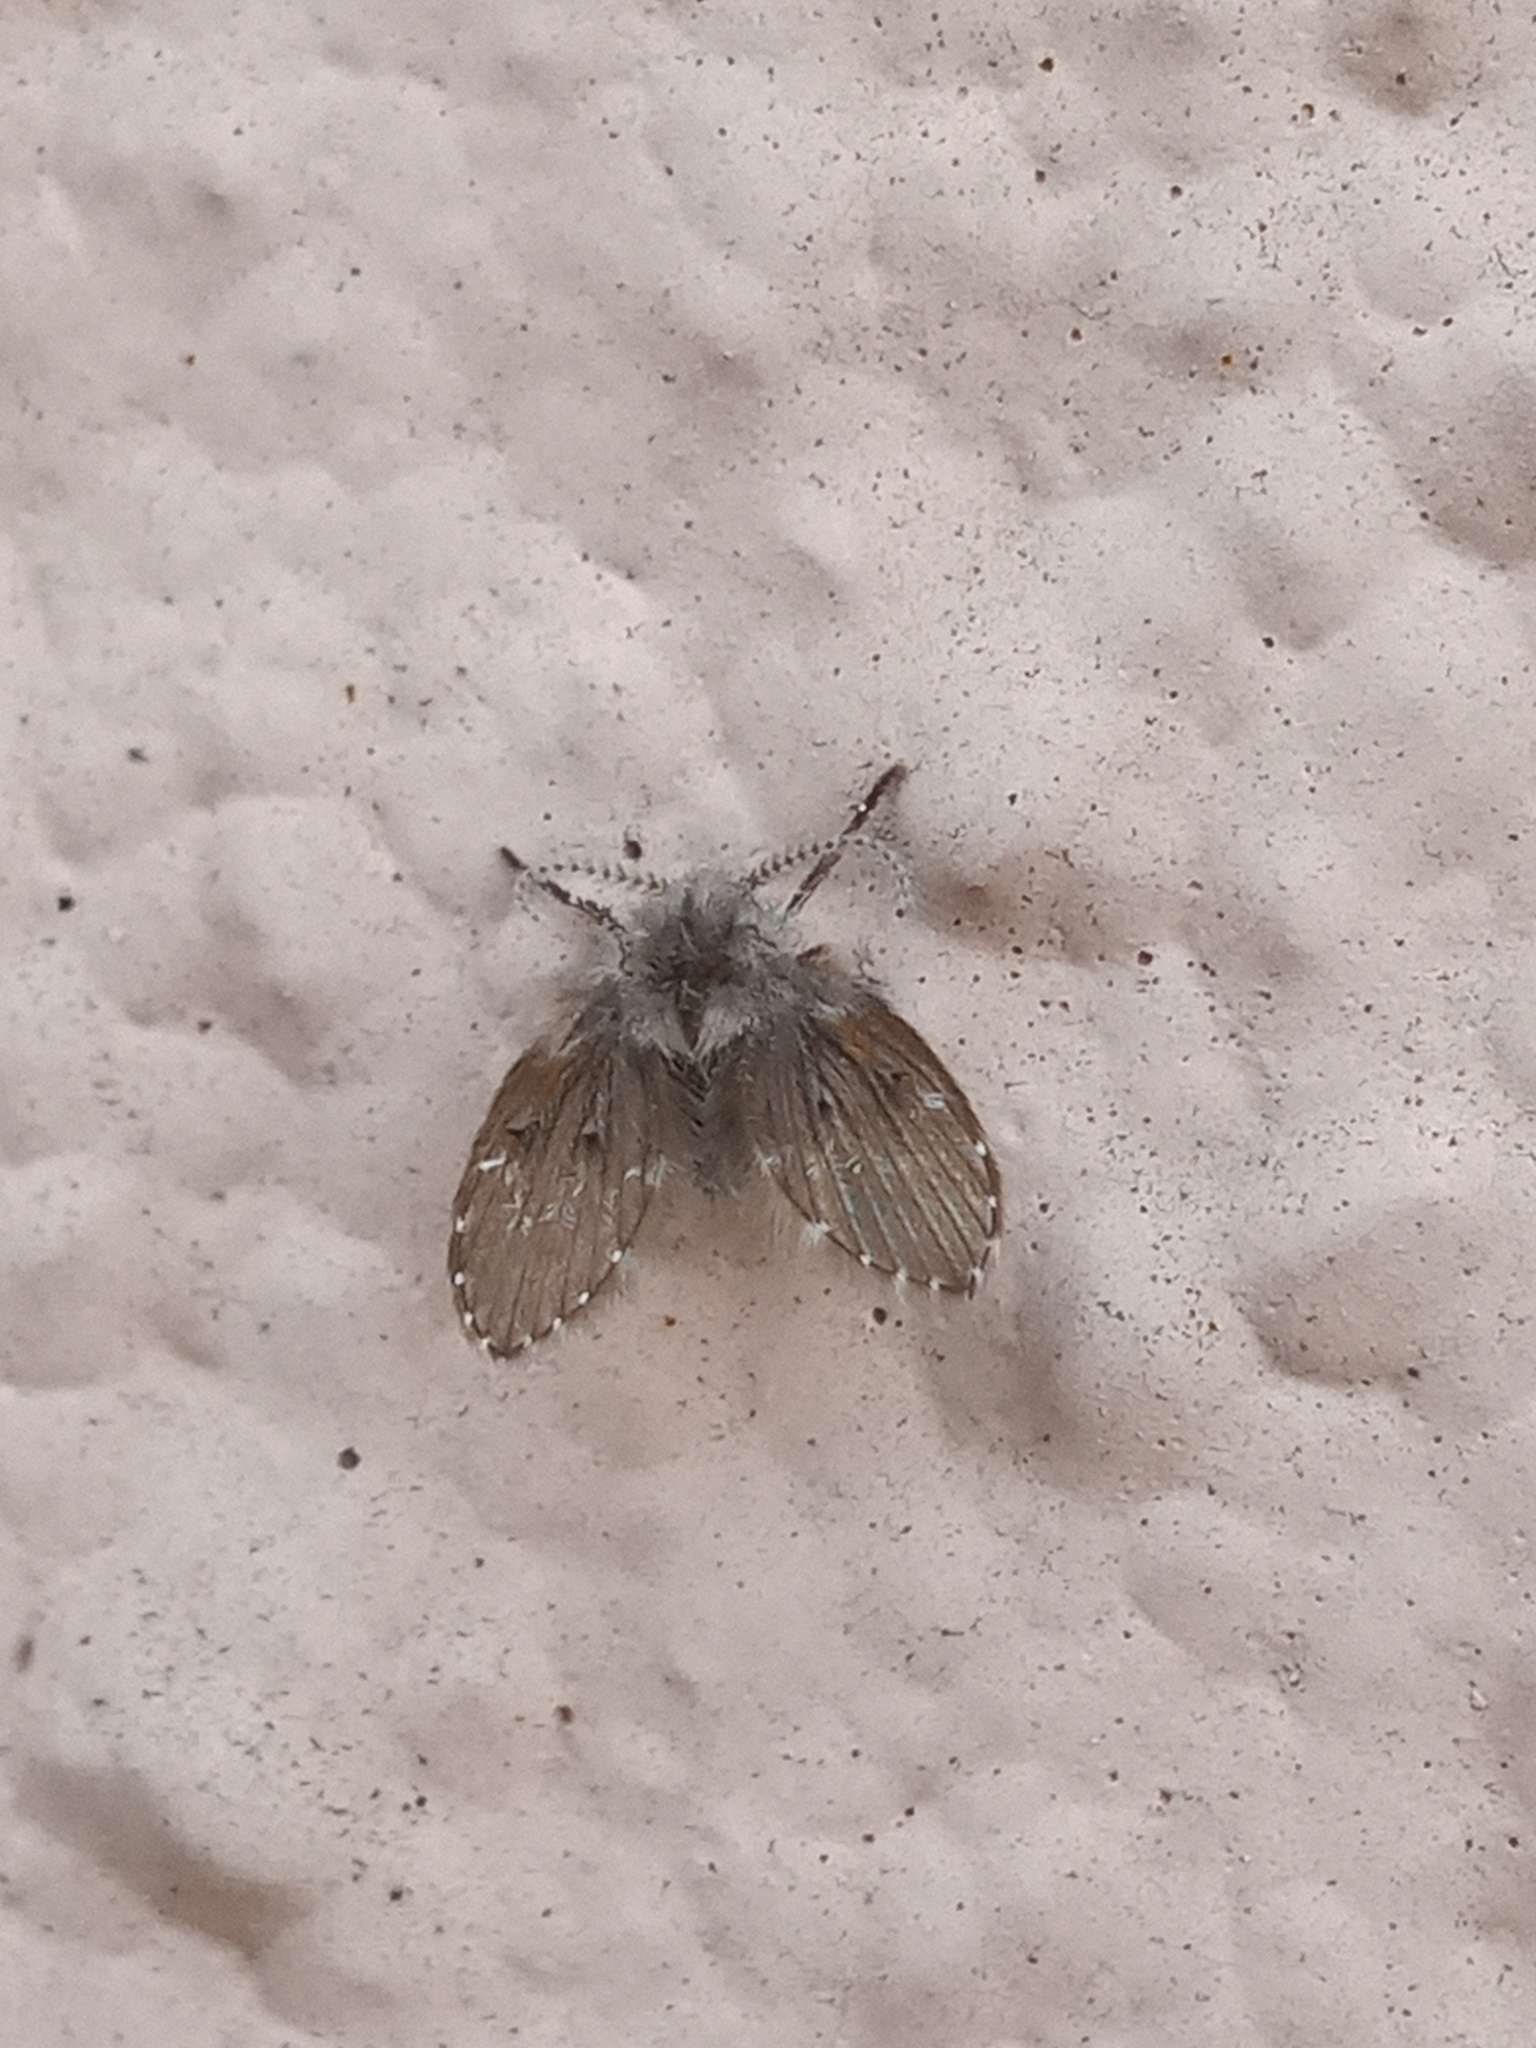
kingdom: Animalia
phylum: Arthropoda
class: Insecta
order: Diptera
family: Psychodidae
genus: Clogmia
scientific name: Clogmia albipunctatus
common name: White-spotted moth fly
